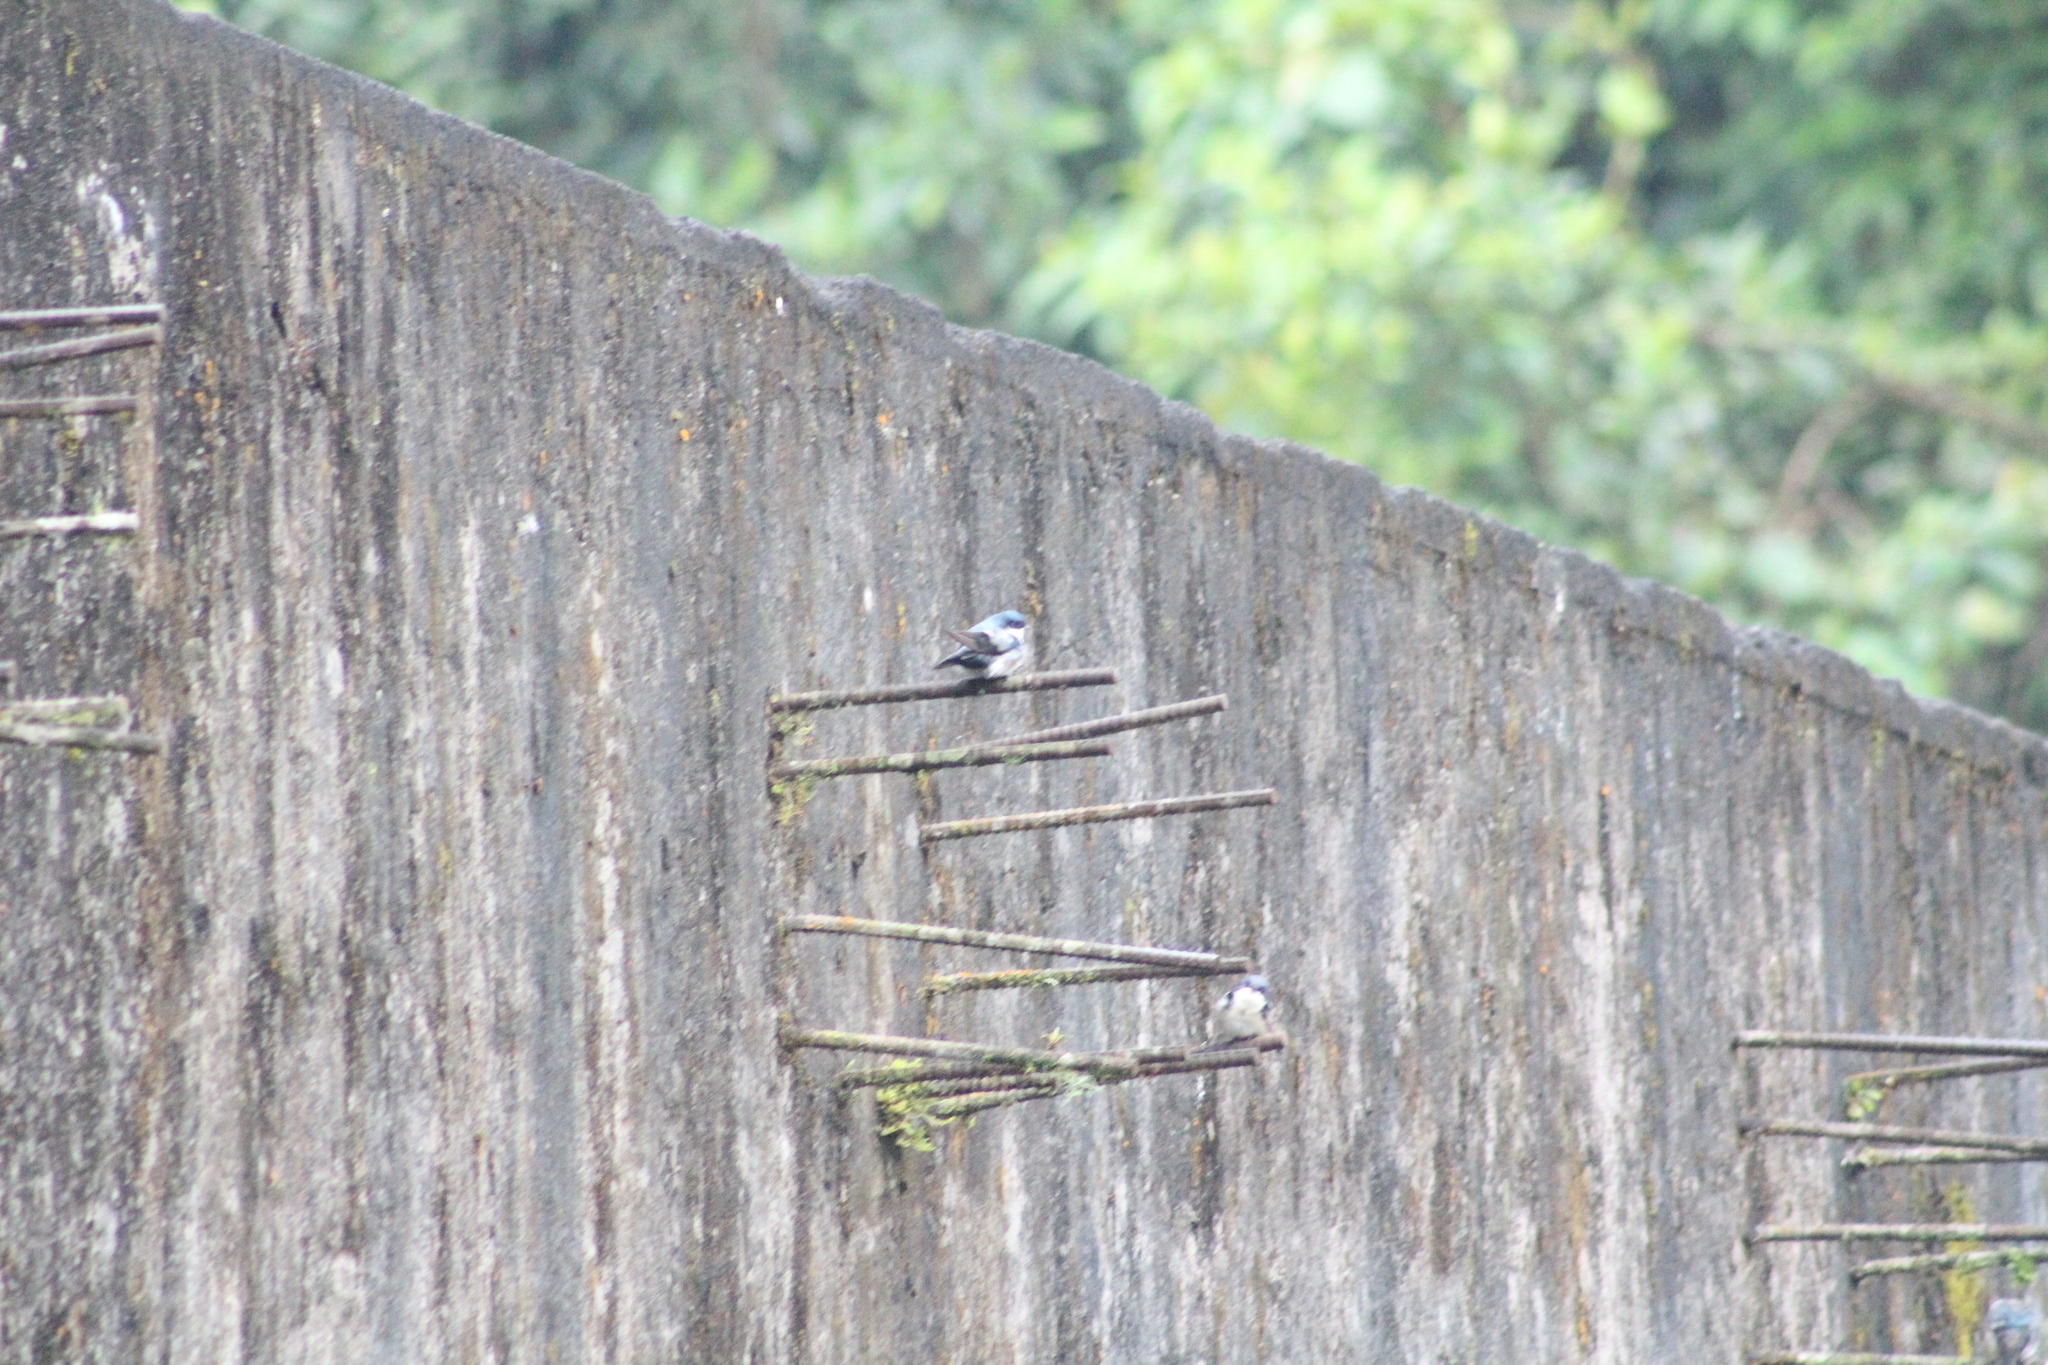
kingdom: Animalia
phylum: Chordata
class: Aves
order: Passeriformes
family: Hirundinidae
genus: Tachycineta
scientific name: Tachycineta albiventer
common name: White-winged swallow
